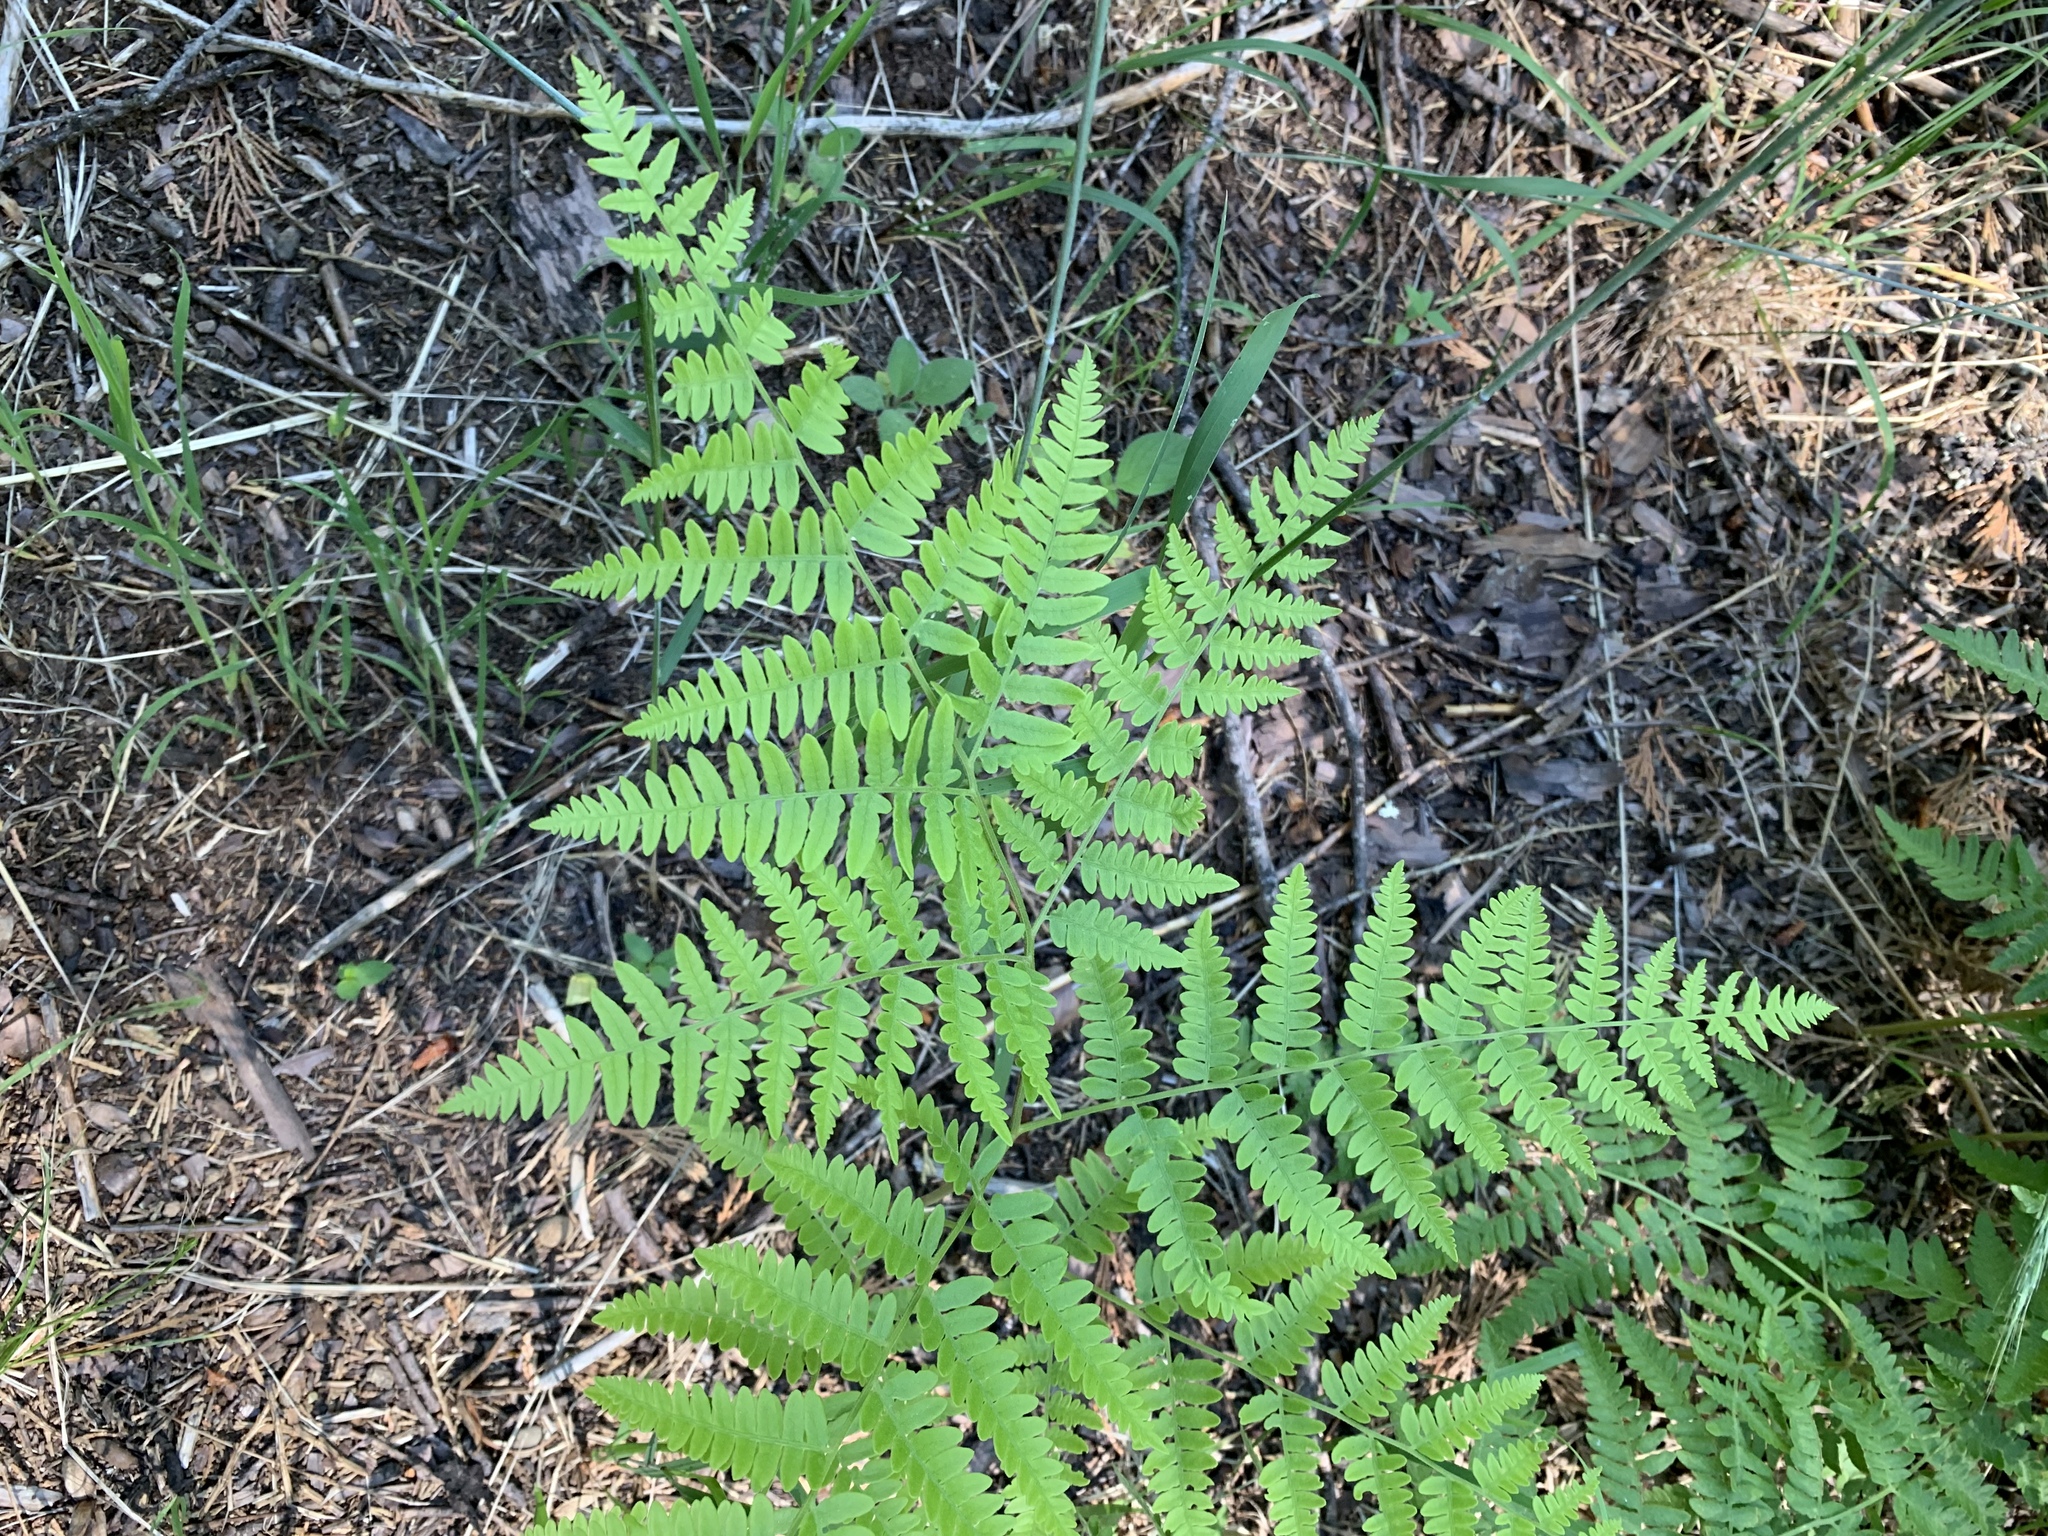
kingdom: Plantae
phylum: Tracheophyta
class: Polypodiopsida
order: Polypodiales
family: Dennstaedtiaceae
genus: Pteridium
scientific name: Pteridium aquilinum
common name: Bracken
